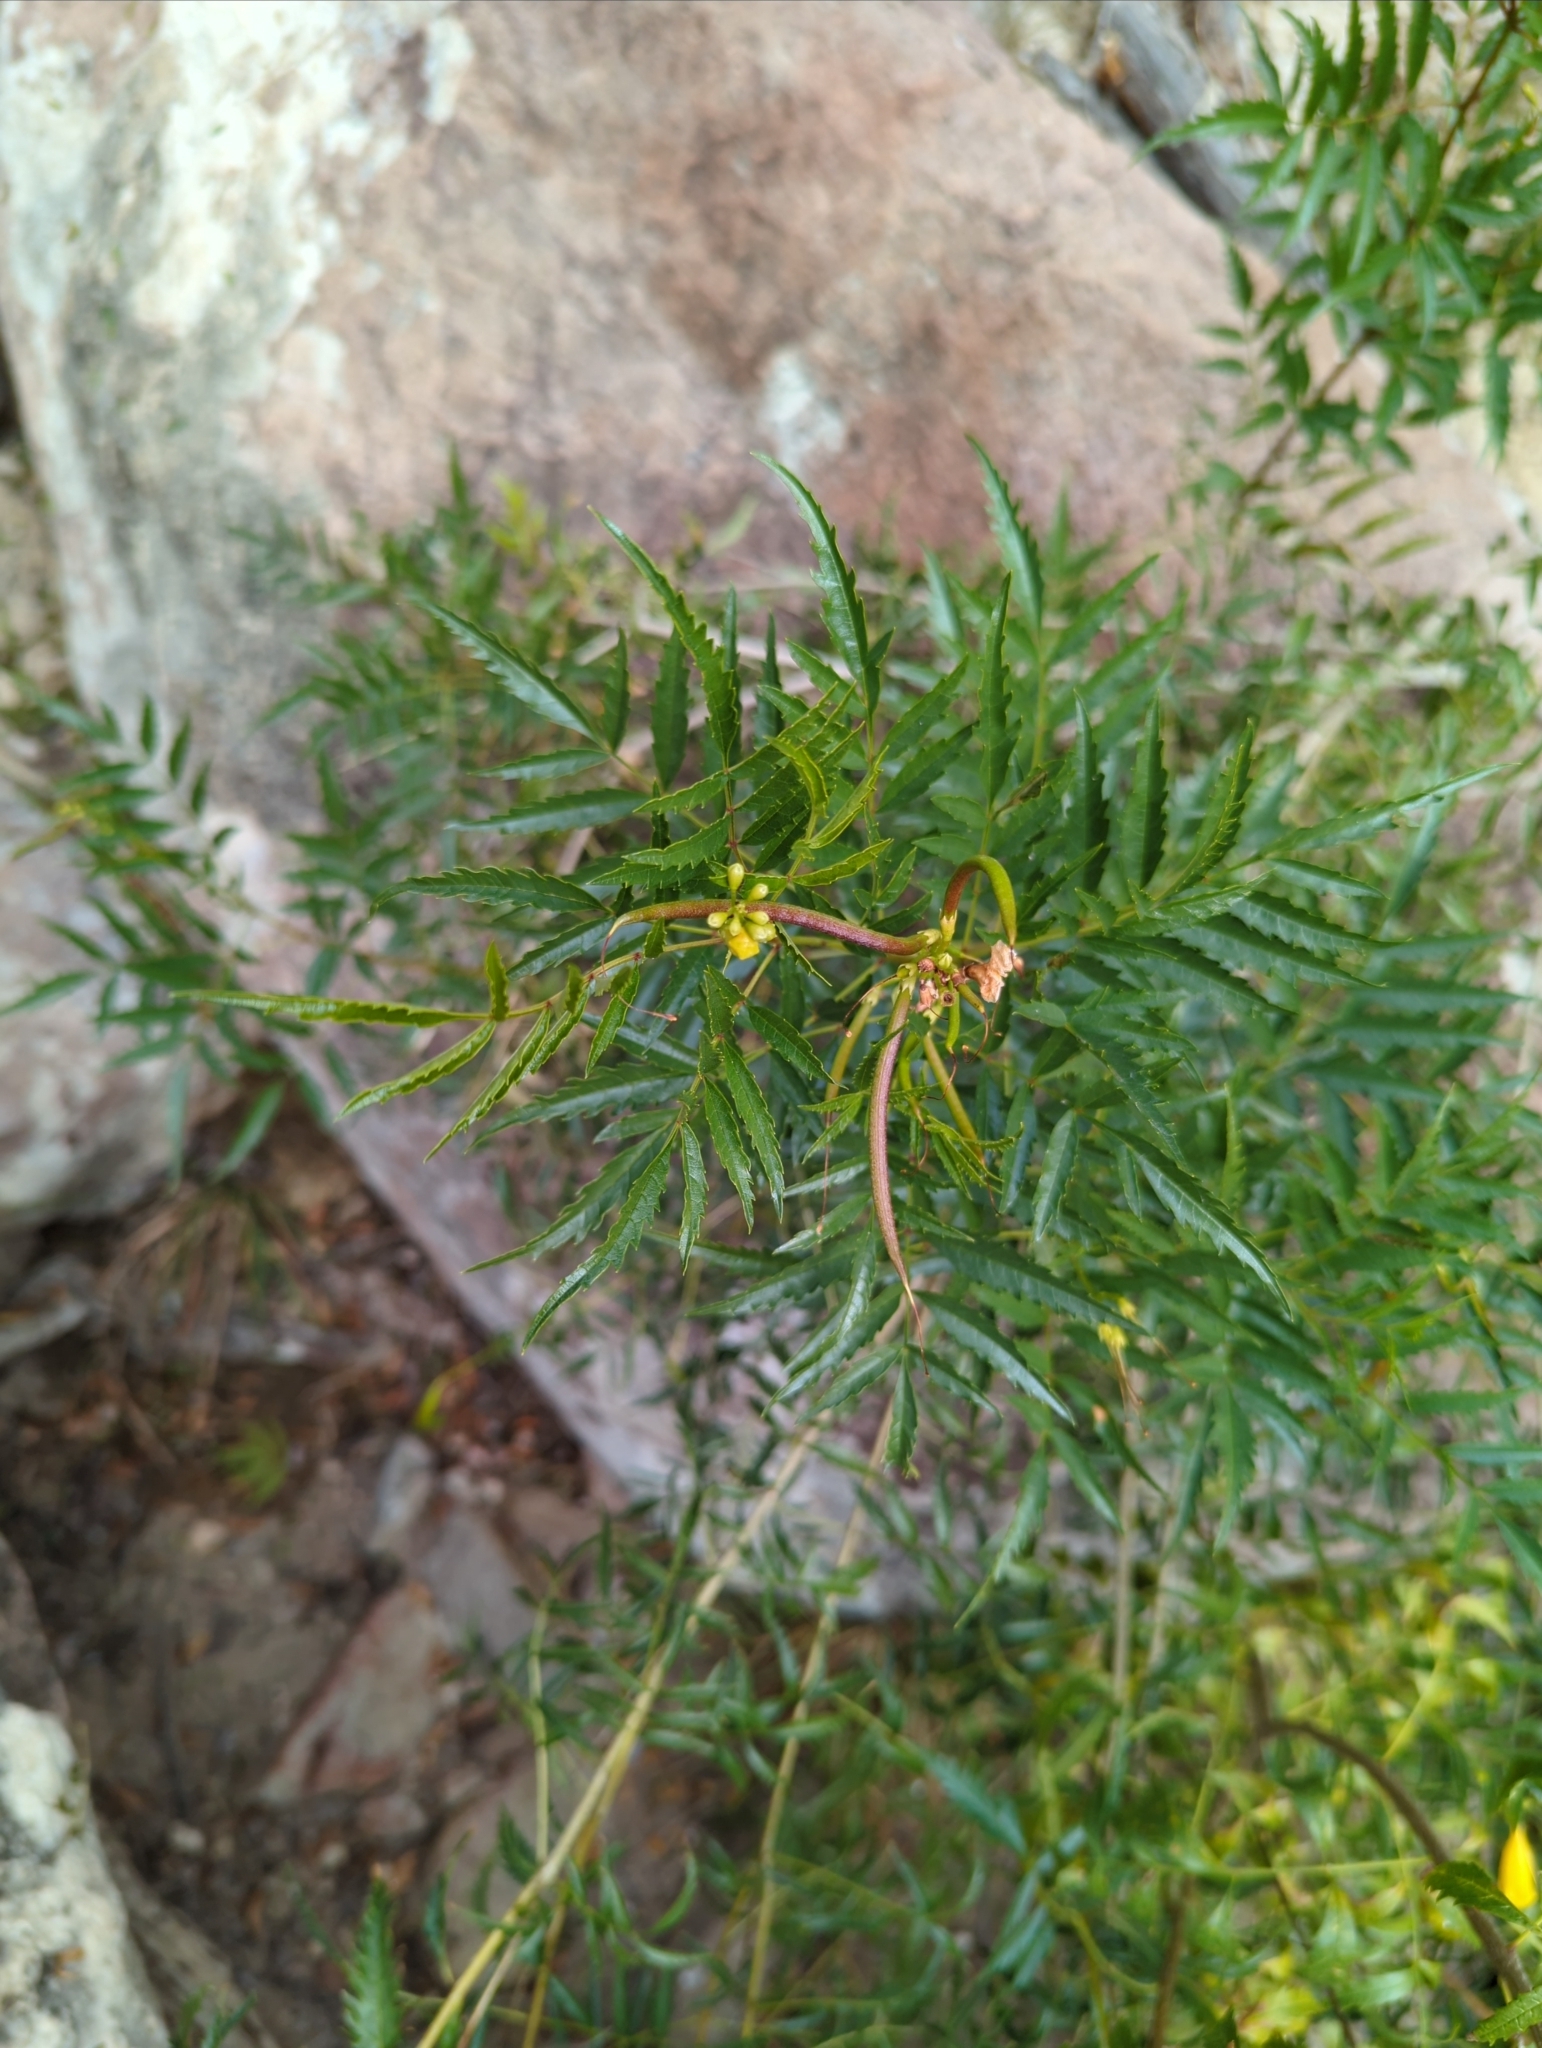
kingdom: Plantae
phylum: Tracheophyta
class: Magnoliopsida
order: Lamiales
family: Bignoniaceae
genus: Tecoma
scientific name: Tecoma stans
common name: Yellow trumpetbush
